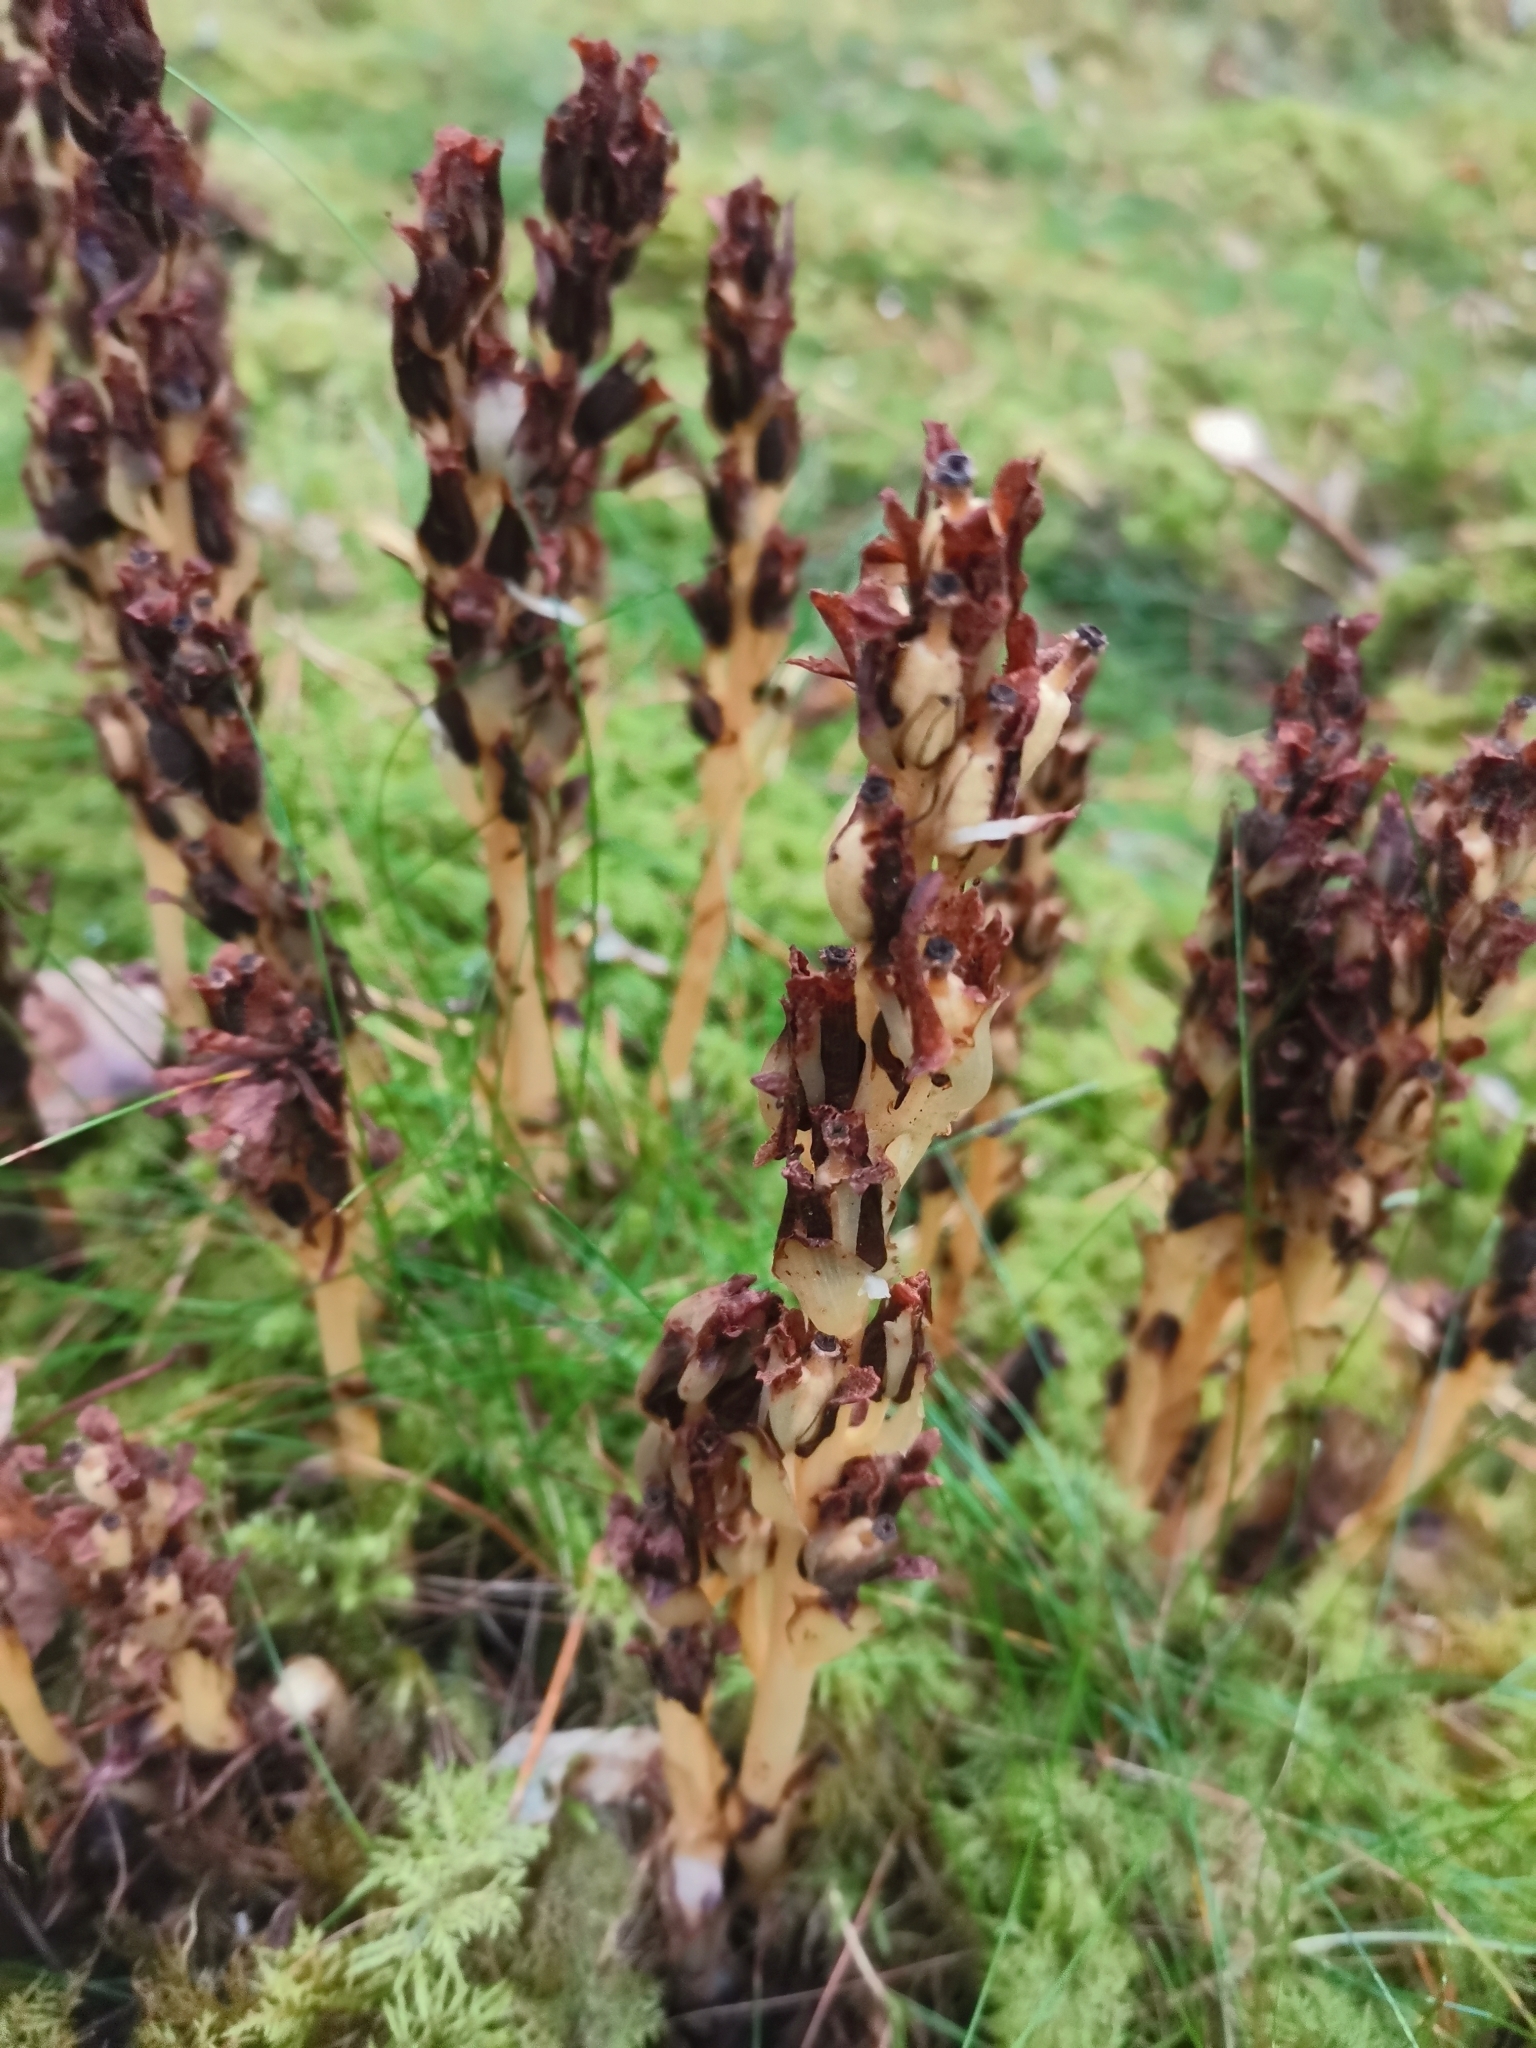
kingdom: Plantae
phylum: Tracheophyta
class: Magnoliopsida
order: Ericales
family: Ericaceae
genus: Hypopitys
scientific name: Hypopitys monotropa
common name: Yellow bird's-nest
